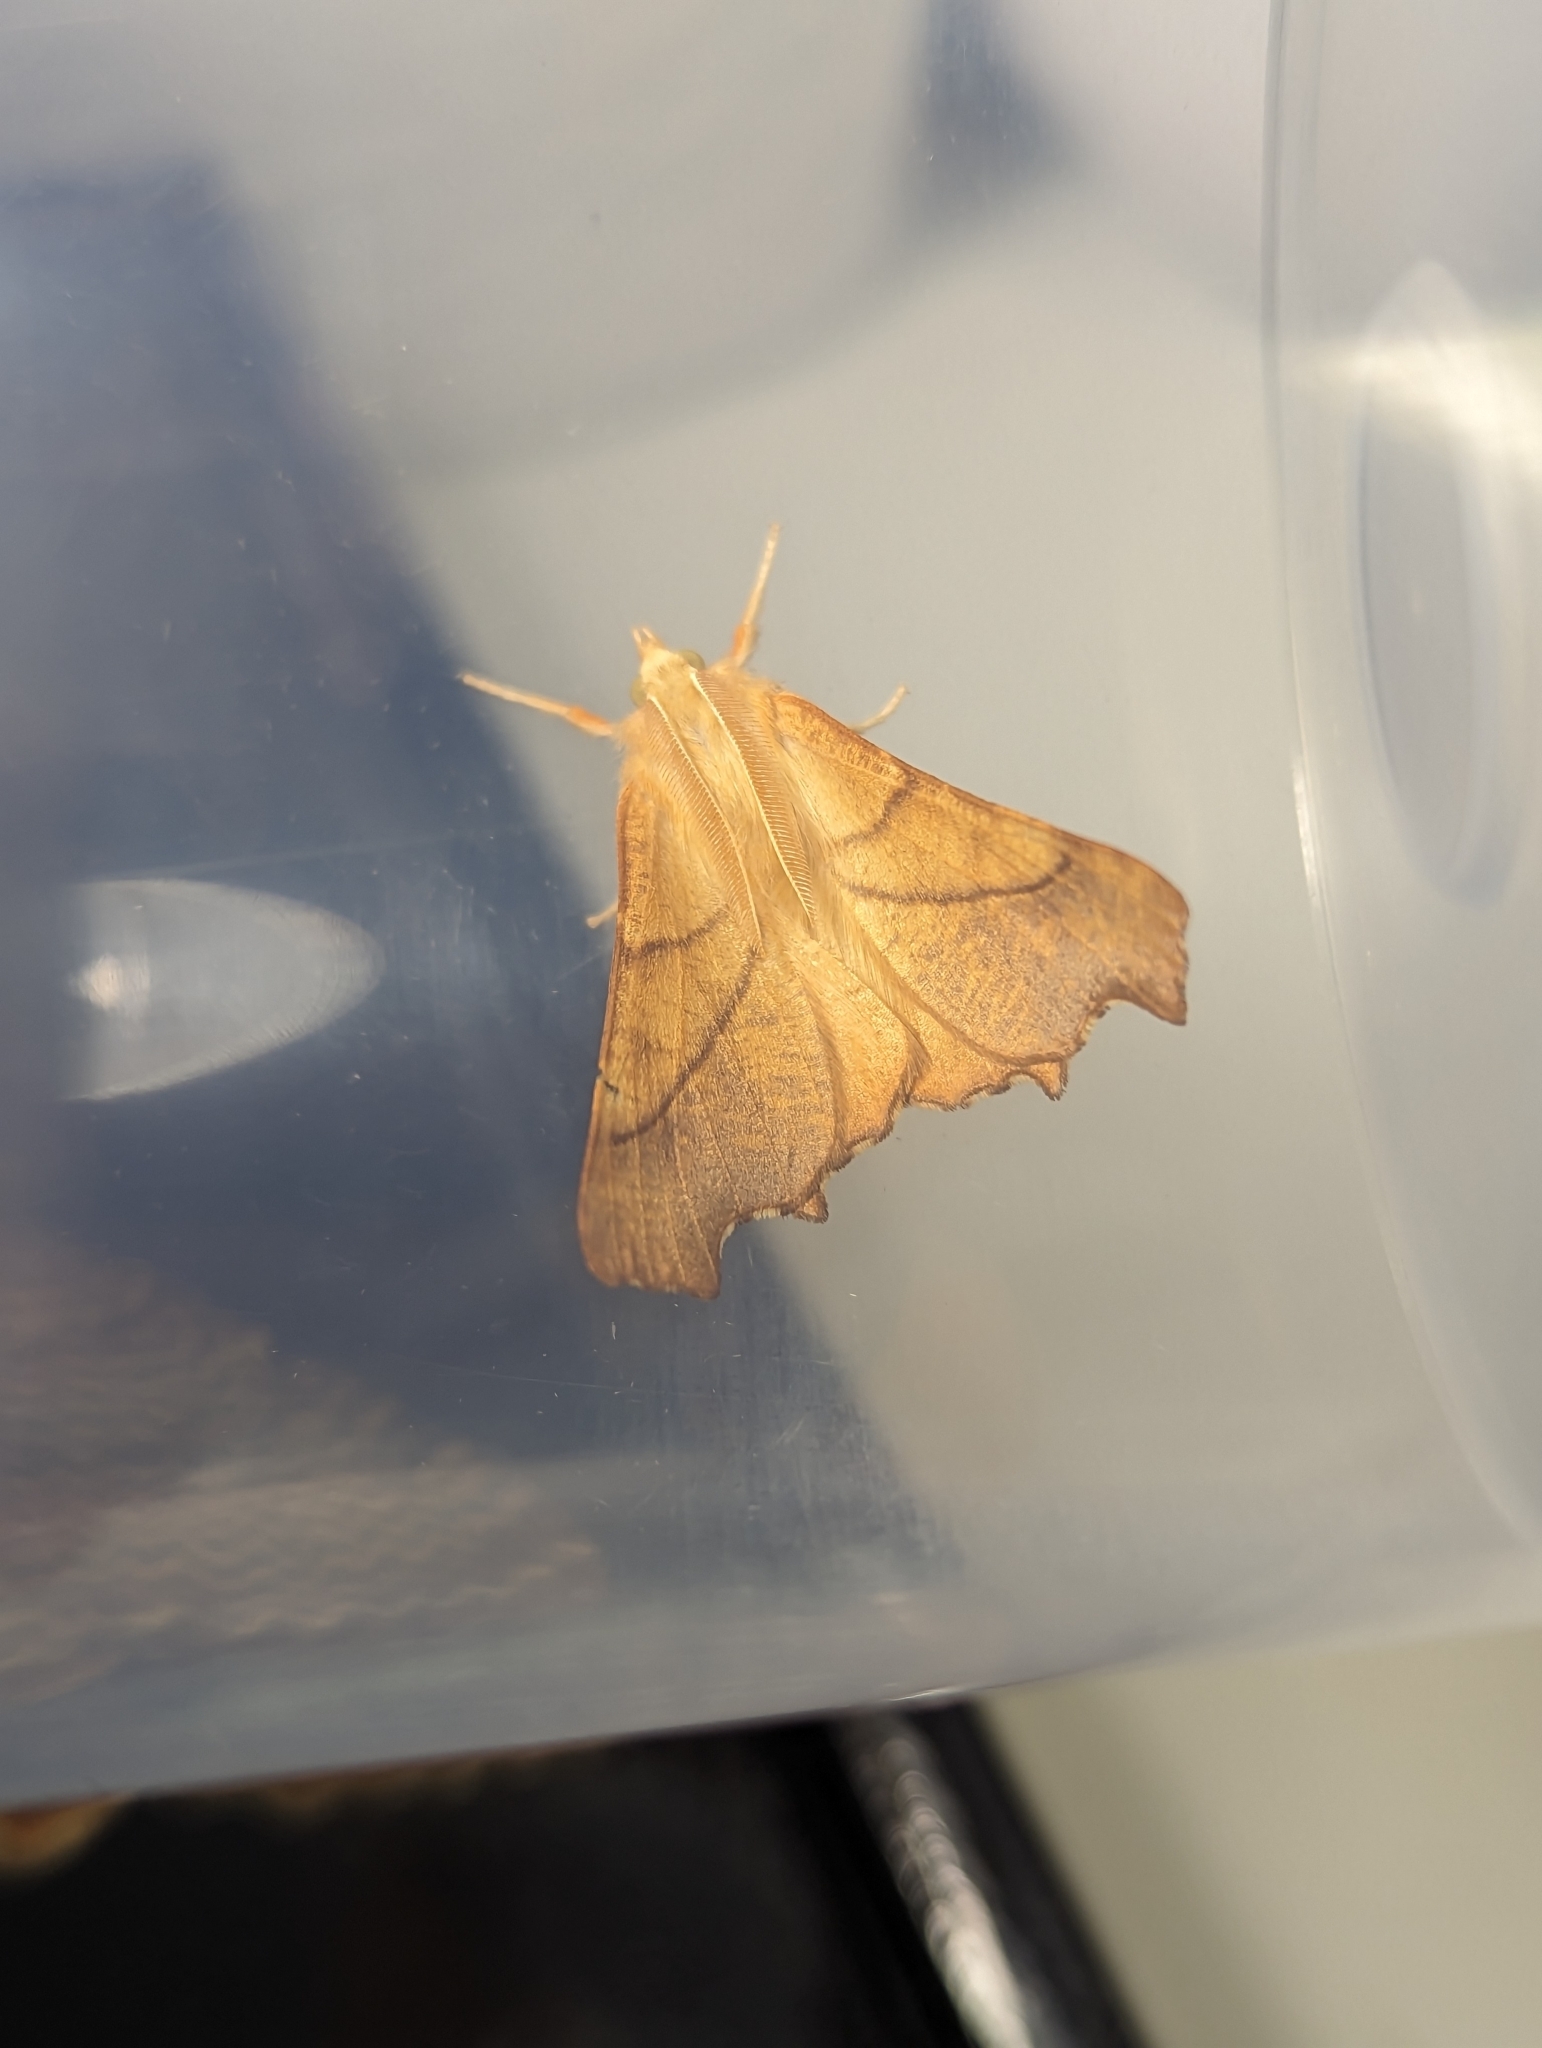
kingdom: Animalia
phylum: Arthropoda
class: Insecta
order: Lepidoptera
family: Geometridae
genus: Ennomos
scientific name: Ennomos fuscantaria
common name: Dusky thorn
